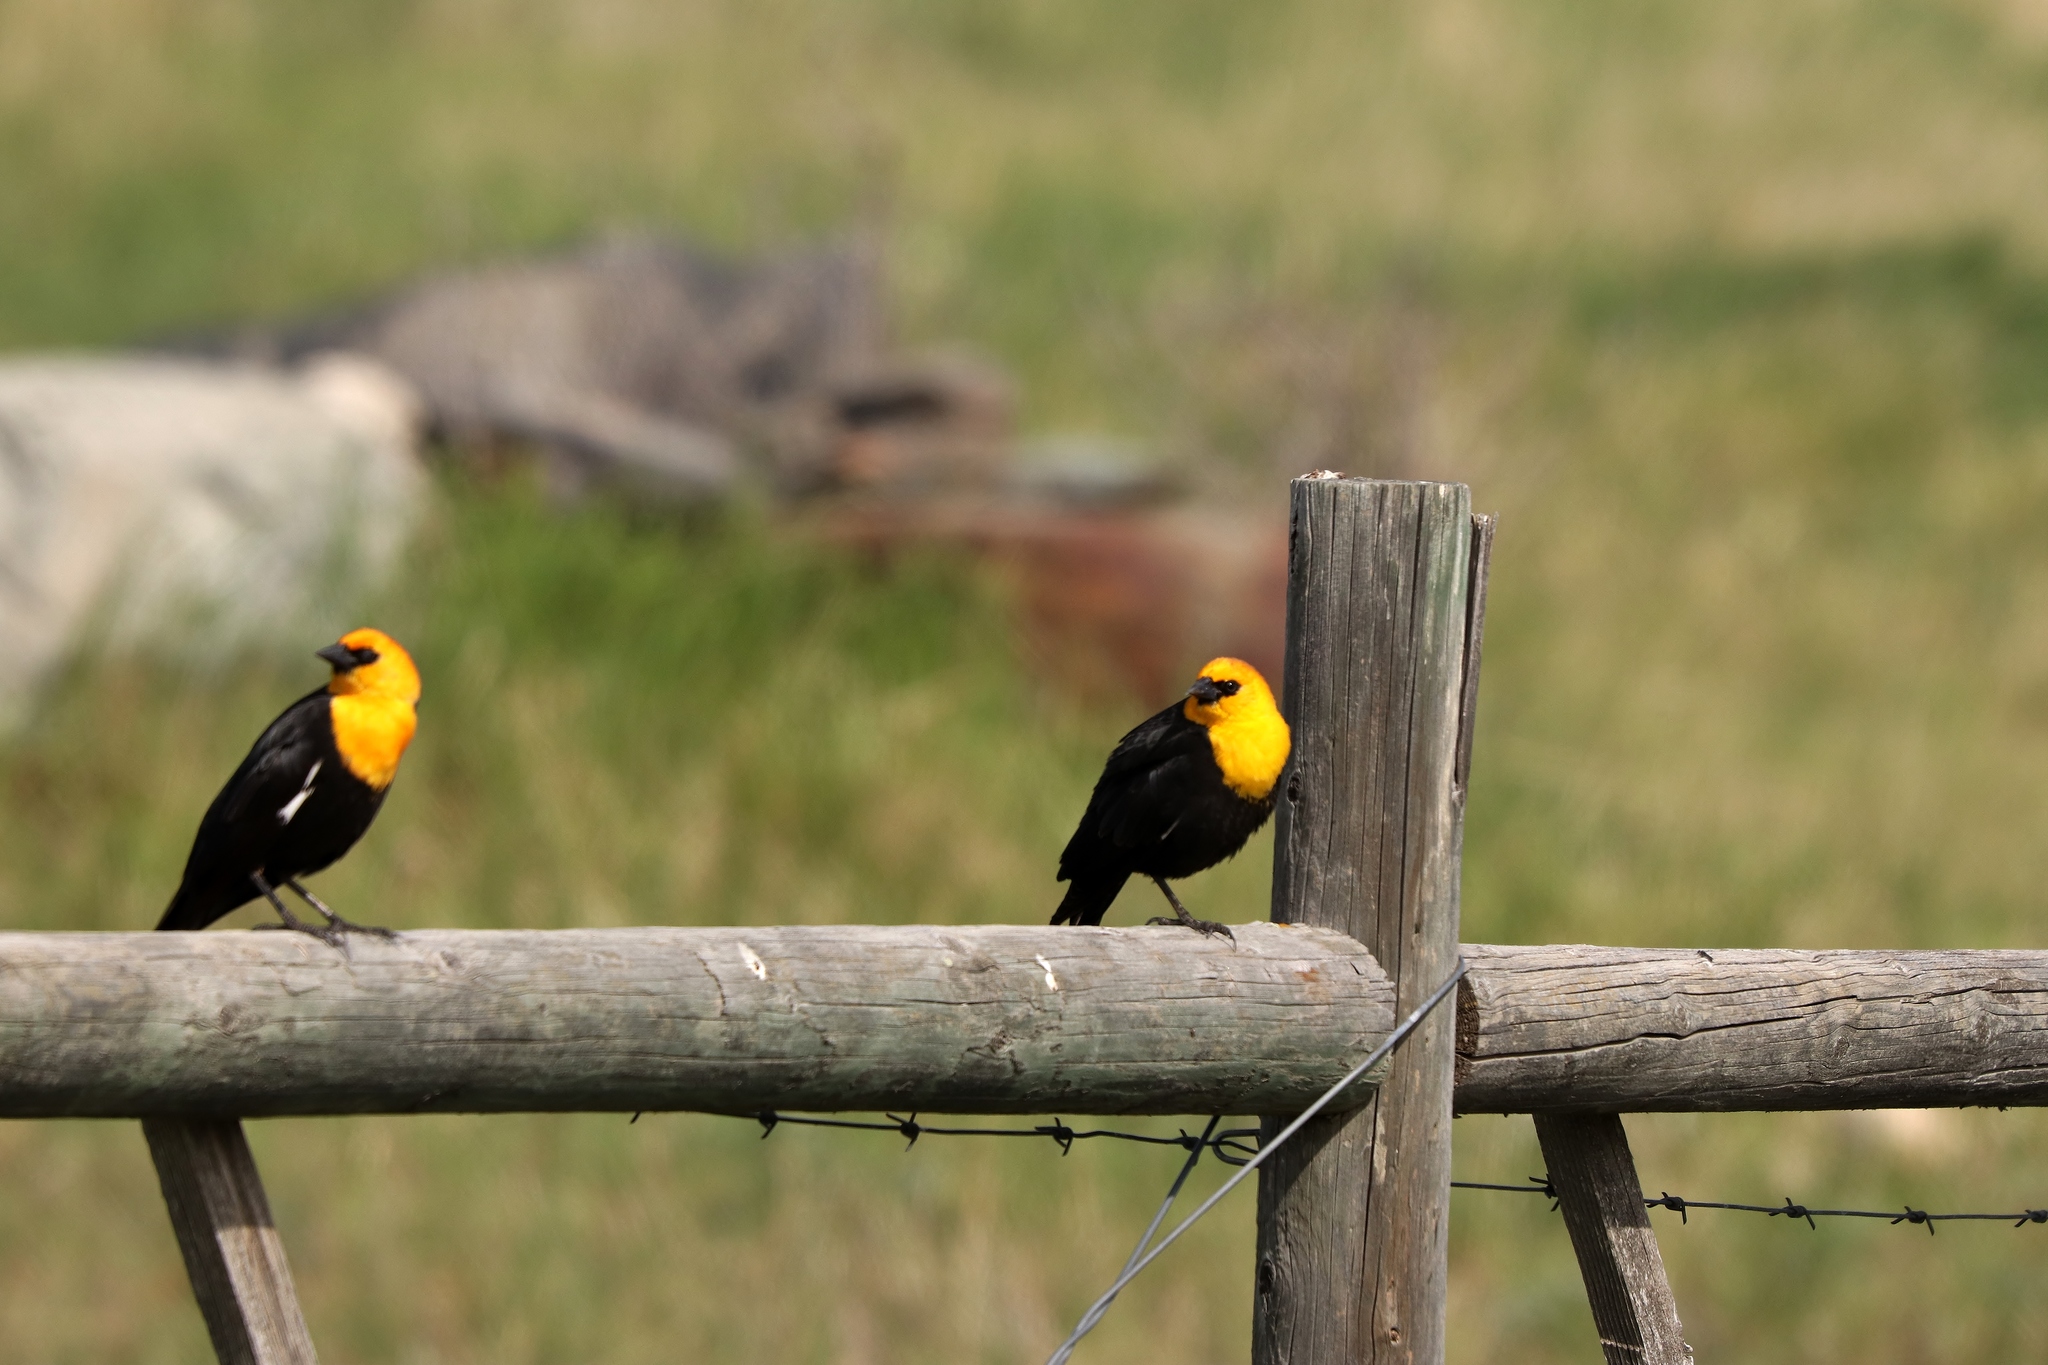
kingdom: Animalia
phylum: Chordata
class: Aves
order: Passeriformes
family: Icteridae
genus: Xanthocephalus
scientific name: Xanthocephalus xanthocephalus
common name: Yellow-headed blackbird
